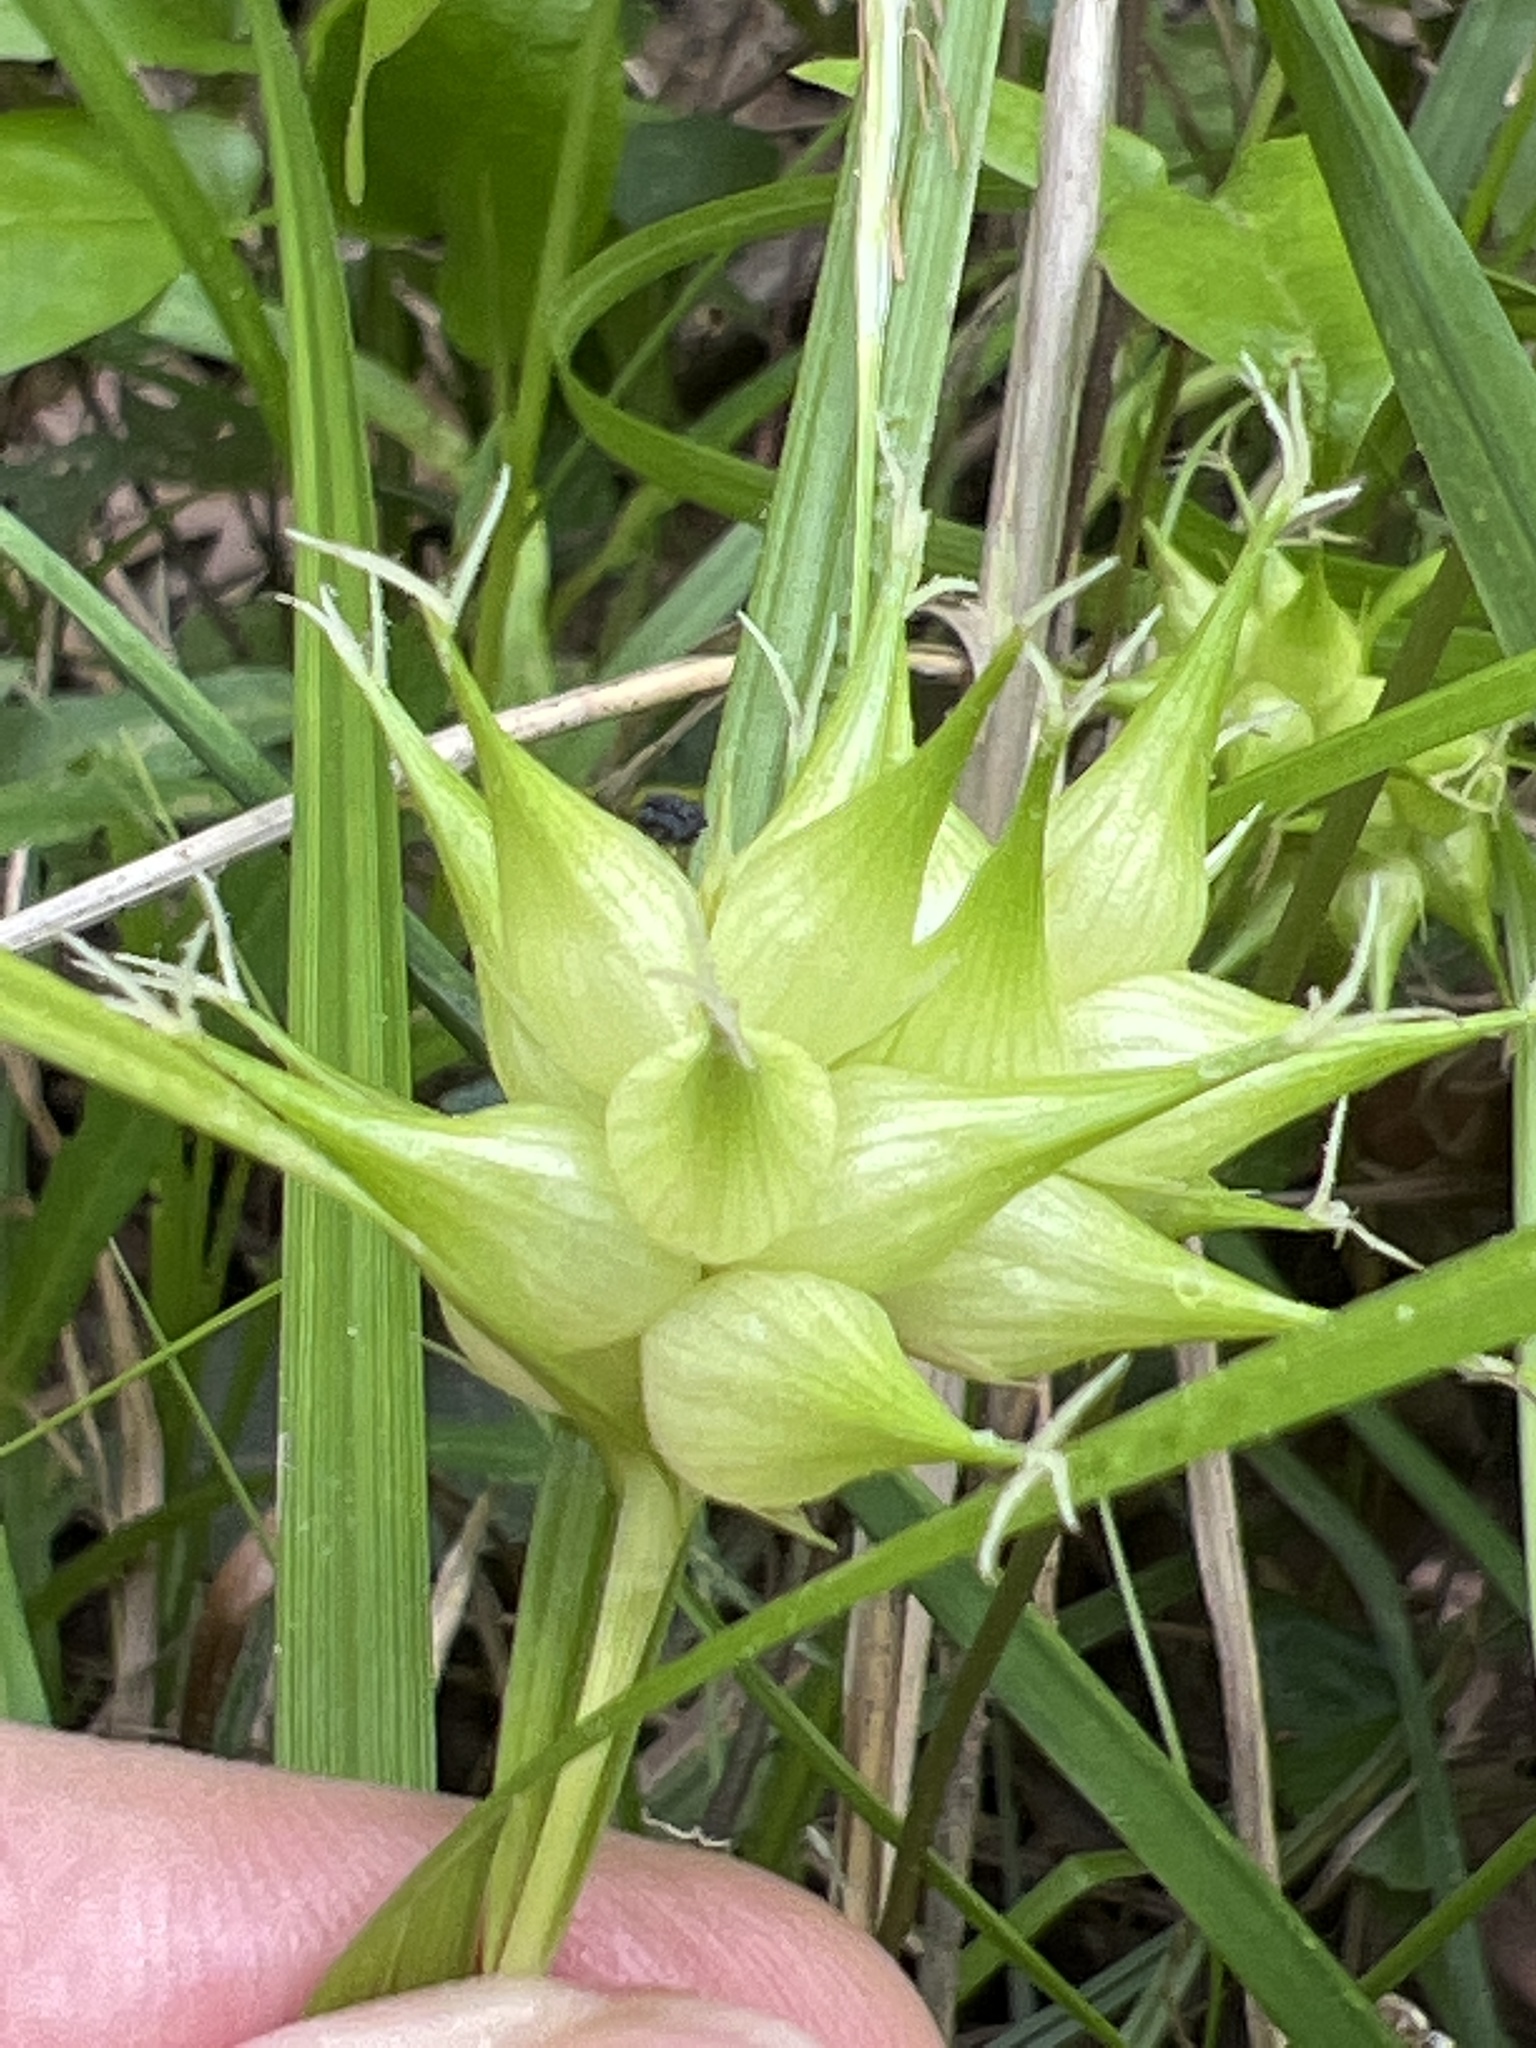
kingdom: Plantae
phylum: Tracheophyta
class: Liliopsida
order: Poales
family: Cyperaceae
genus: Carex
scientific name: Carex intumescens
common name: Greater bladder sedge
